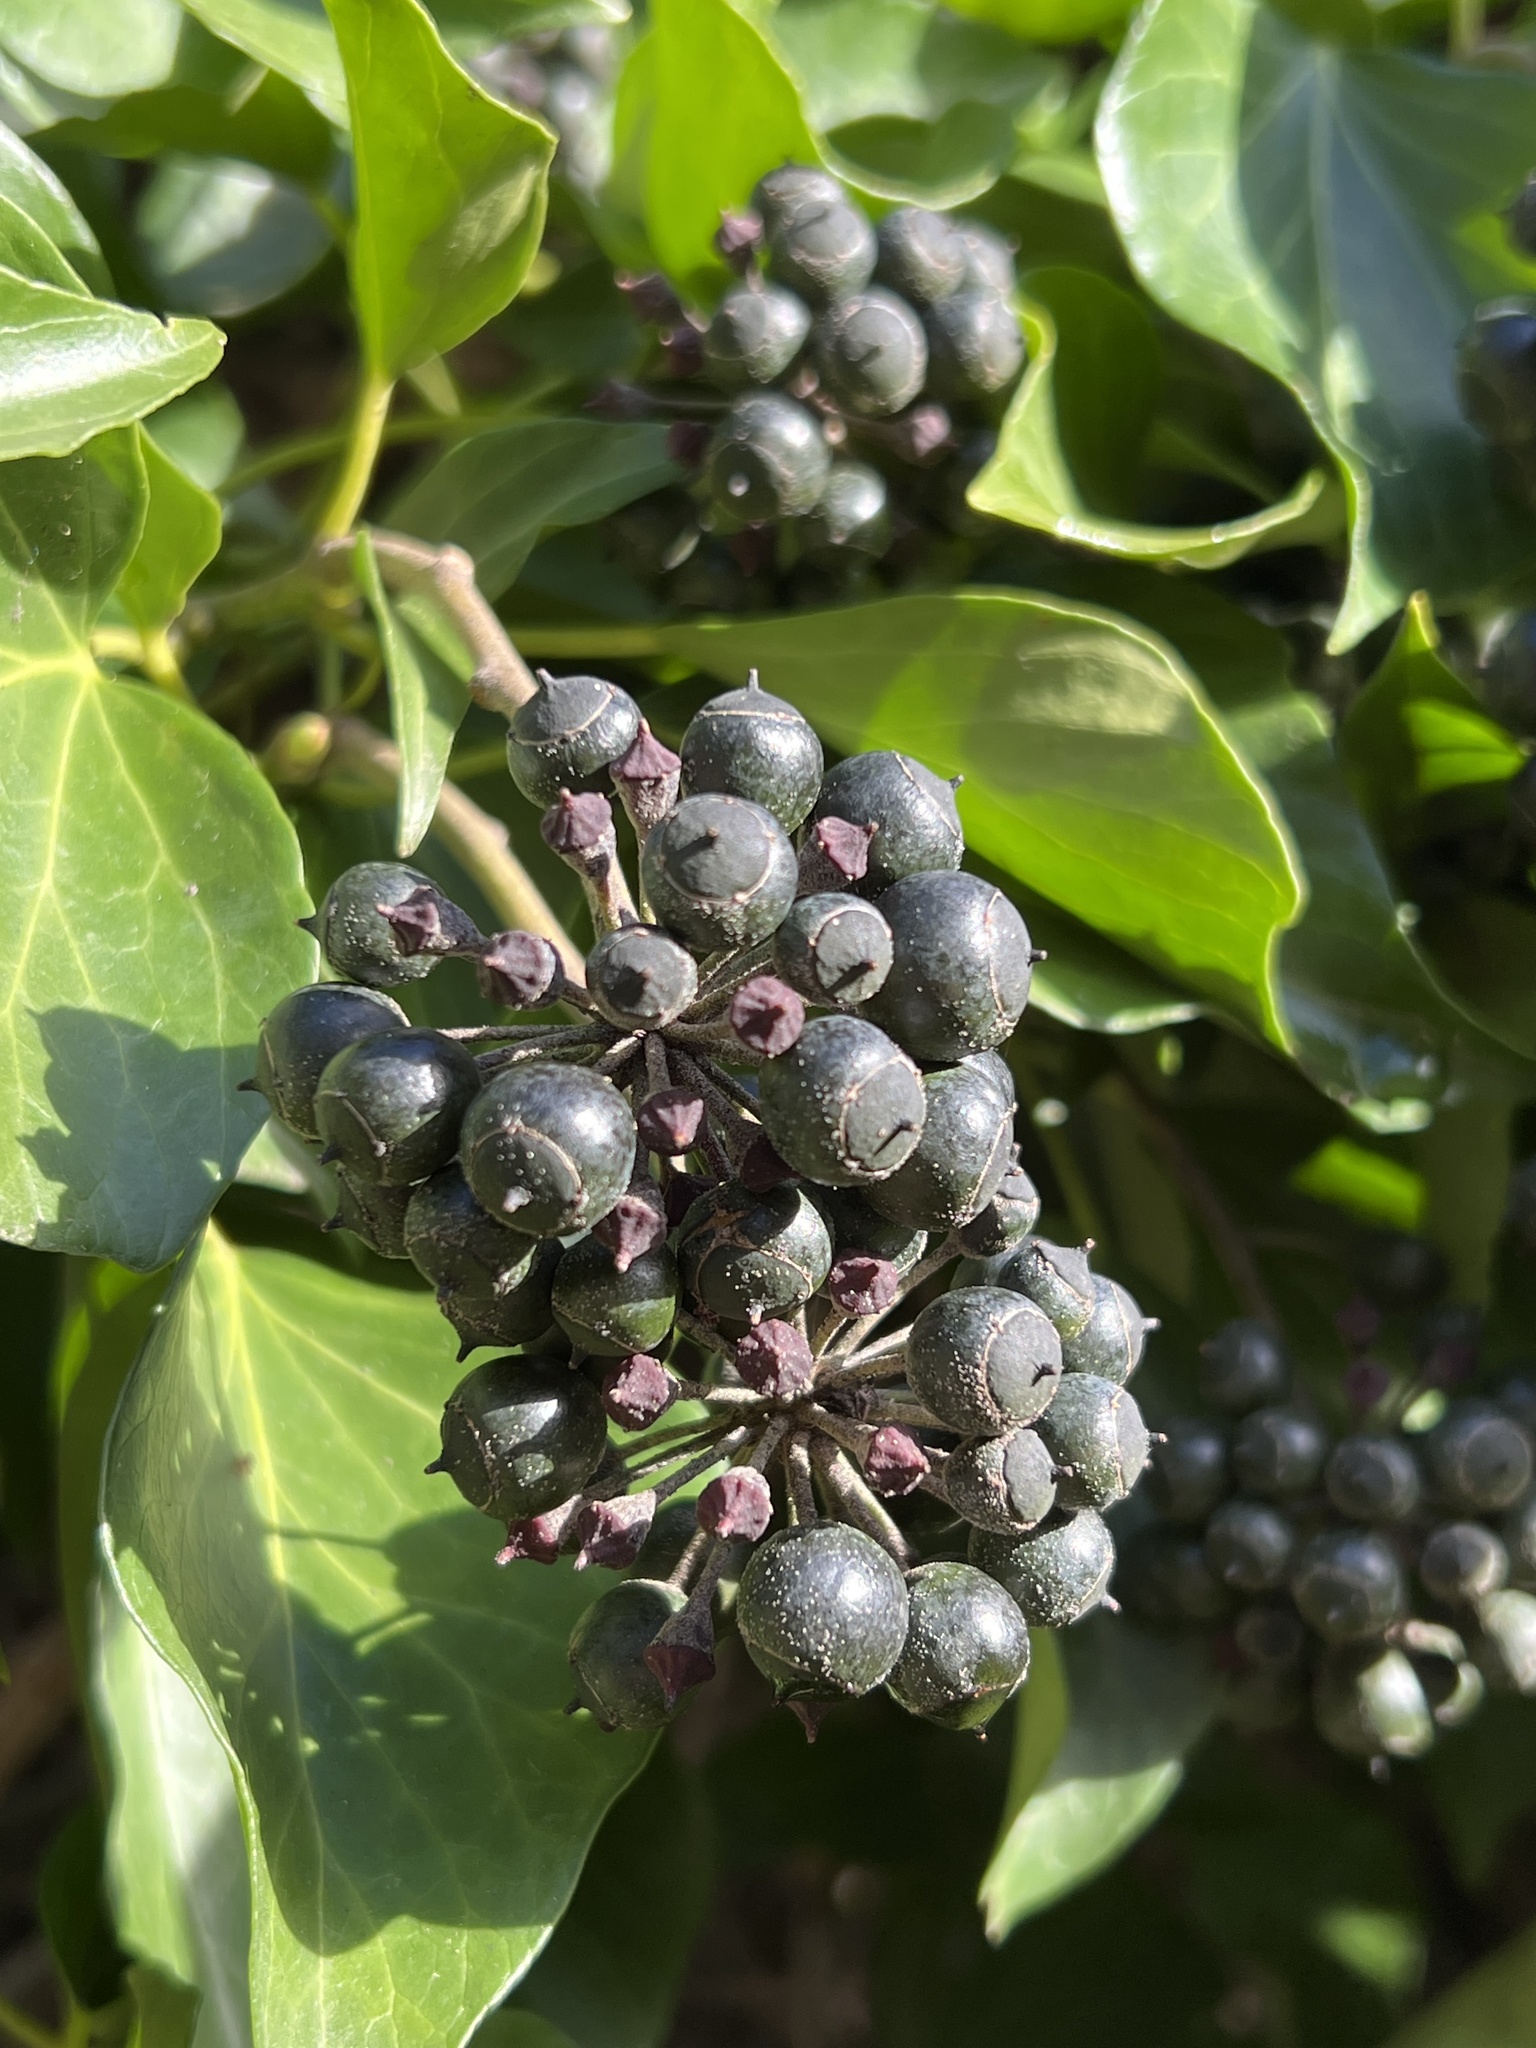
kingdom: Plantae
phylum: Tracheophyta
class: Magnoliopsida
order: Apiales
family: Araliaceae
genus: Hedera
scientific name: Hedera helix
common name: Ivy
